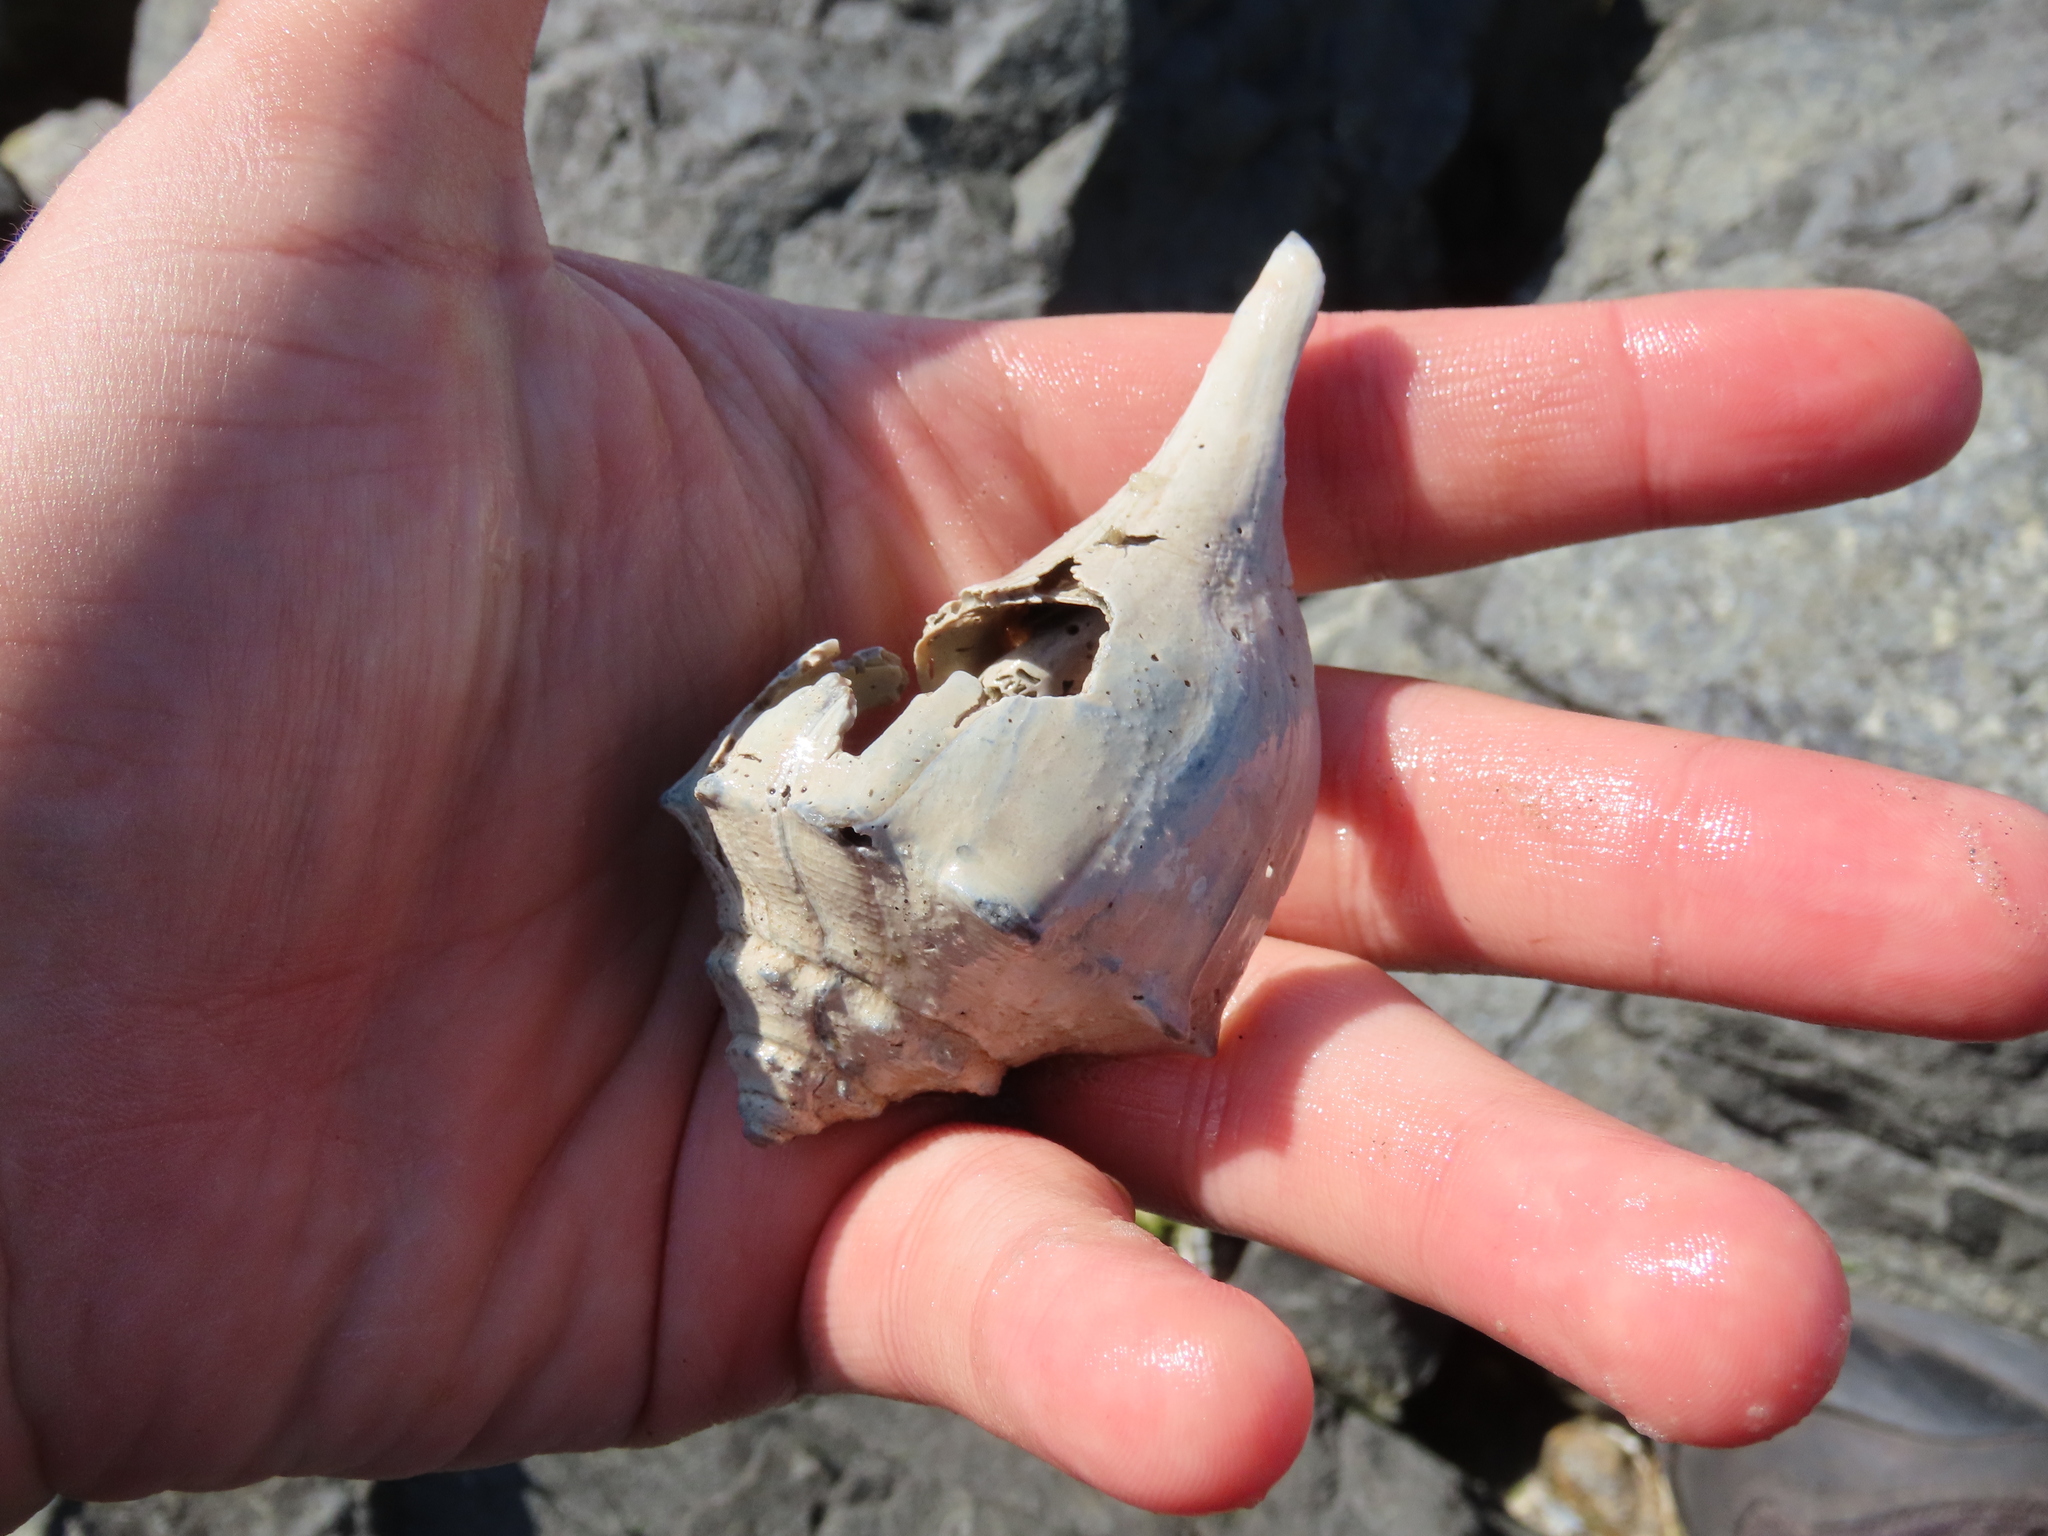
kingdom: Animalia
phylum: Mollusca
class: Gastropoda
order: Neogastropoda
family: Busyconidae
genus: Busycon
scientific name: Busycon carica
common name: Knobbed whelk
